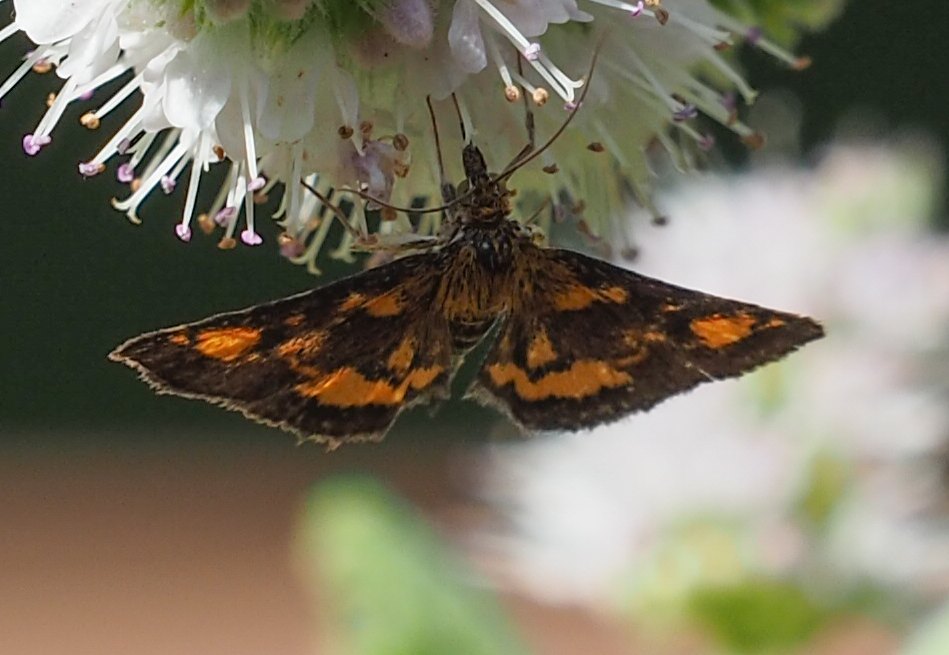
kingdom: Animalia
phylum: Arthropoda
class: Insecta
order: Lepidoptera
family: Crambidae
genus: Pyrausta
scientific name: Pyrausta orphisalis
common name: Orange mint moth
